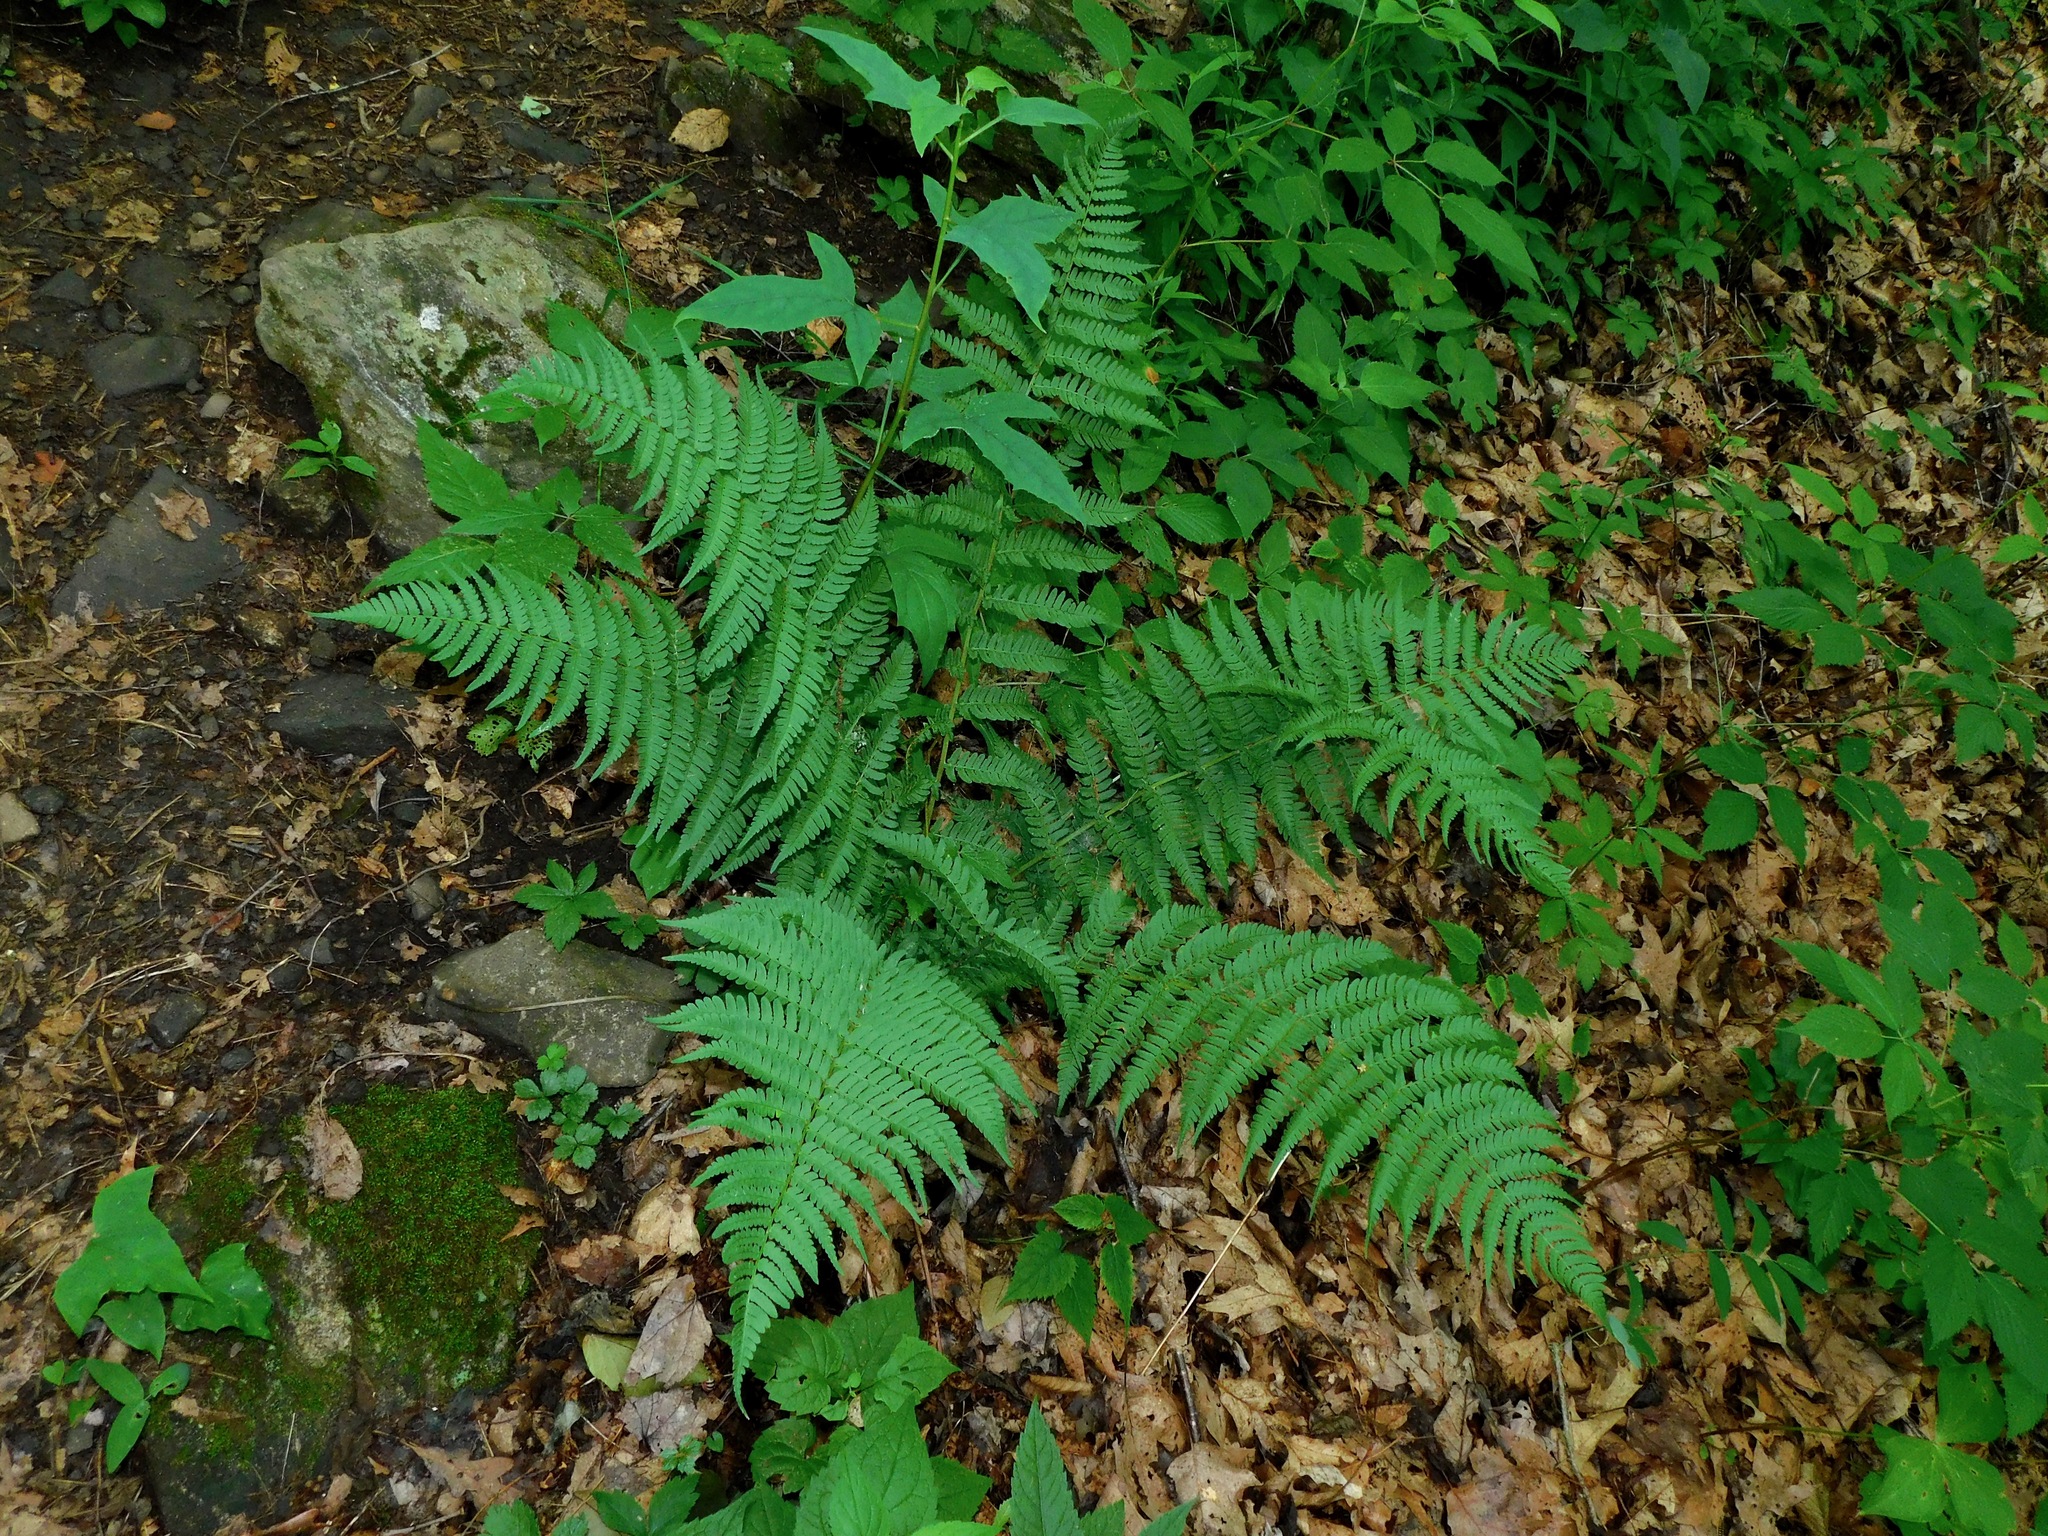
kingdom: Plantae
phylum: Tracheophyta
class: Polypodiopsida
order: Polypodiales
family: Dryopteridaceae
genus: Dryopteris
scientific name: Dryopteris marginalis
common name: Marginal wood fern
